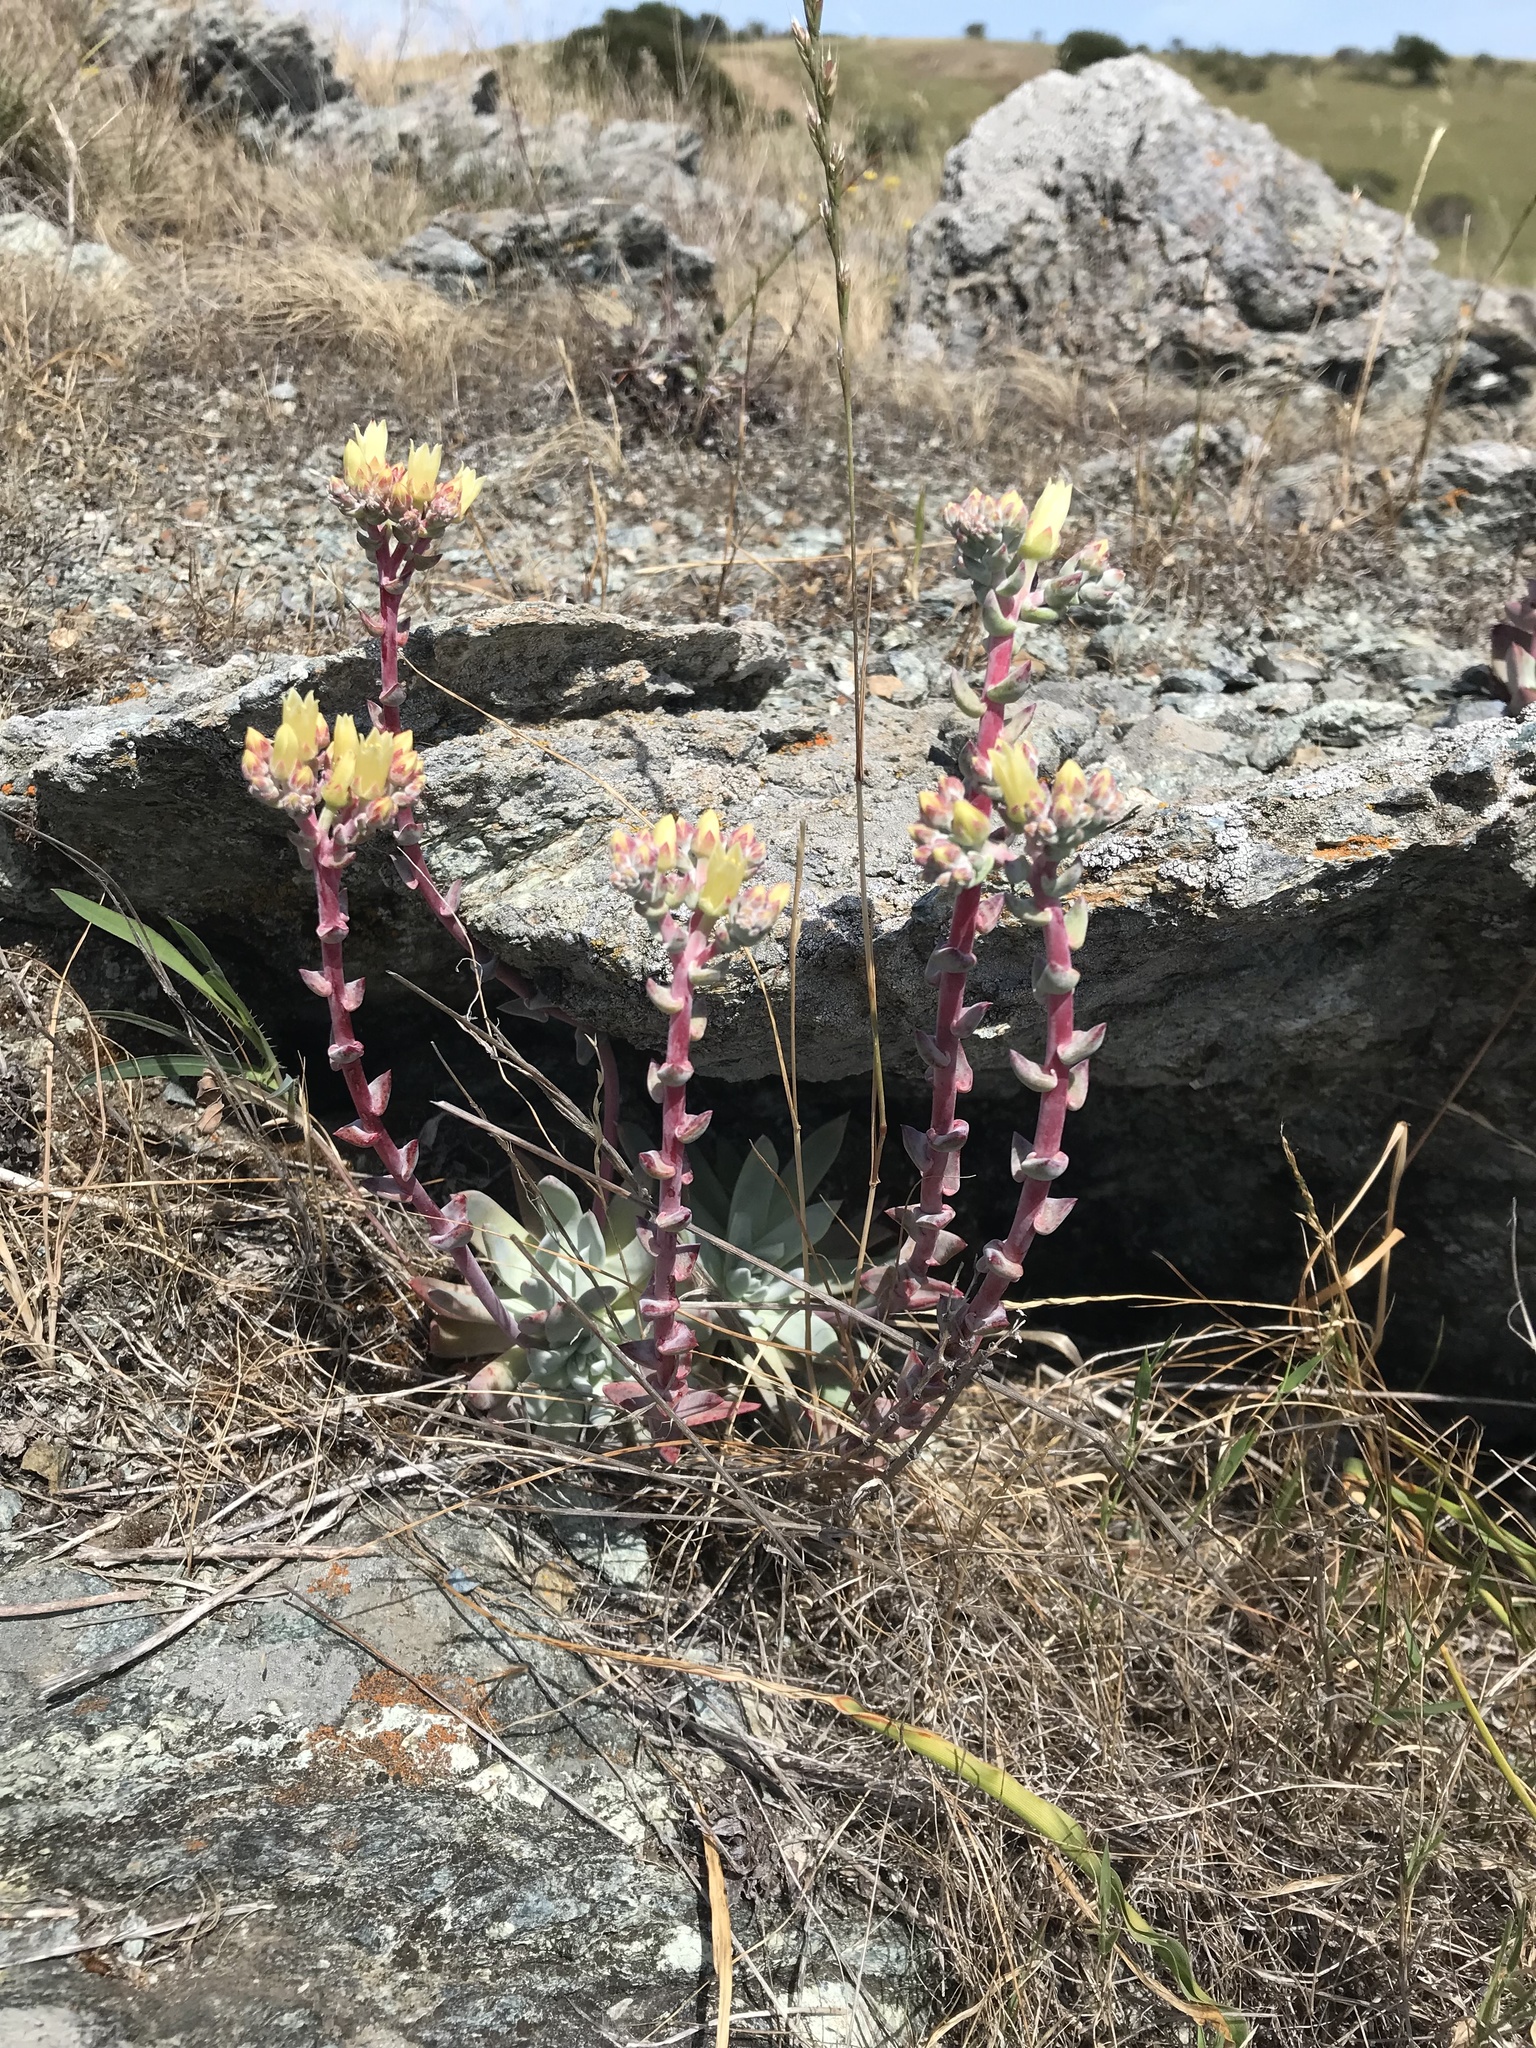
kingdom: Plantae
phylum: Tracheophyta
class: Magnoliopsida
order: Saxifragales
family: Crassulaceae
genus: Dudleya
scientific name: Dudleya farinosa
